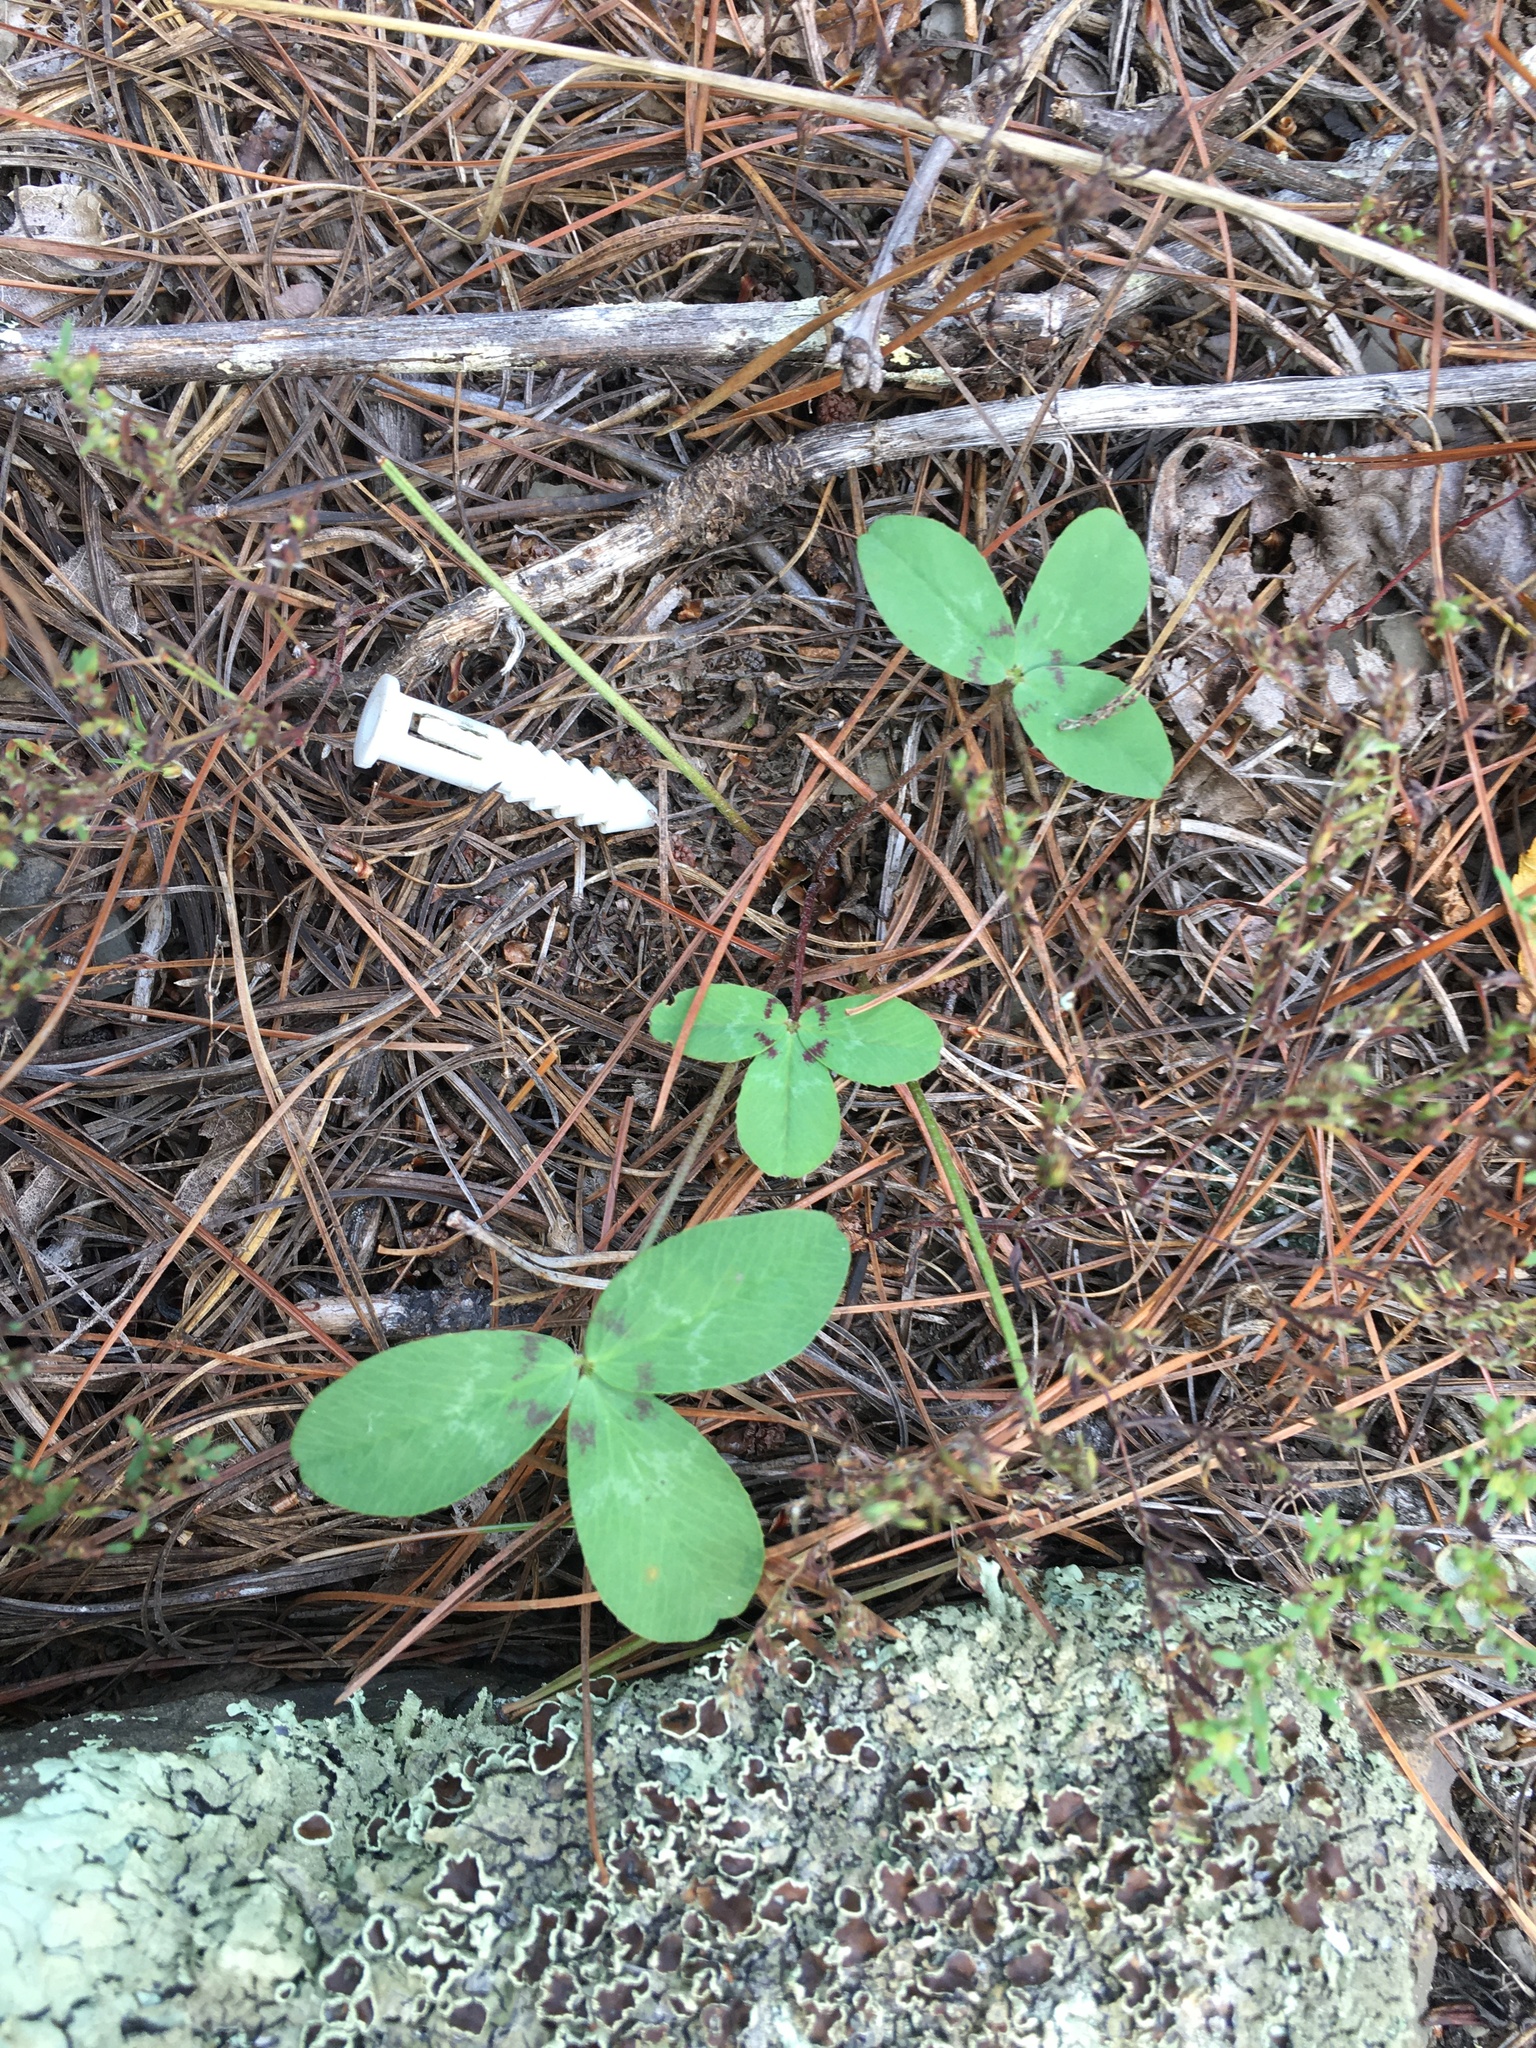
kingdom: Plantae
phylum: Tracheophyta
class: Magnoliopsida
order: Fabales
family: Fabaceae
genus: Trifolium
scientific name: Trifolium virginicum
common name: Kate's mountain clover
